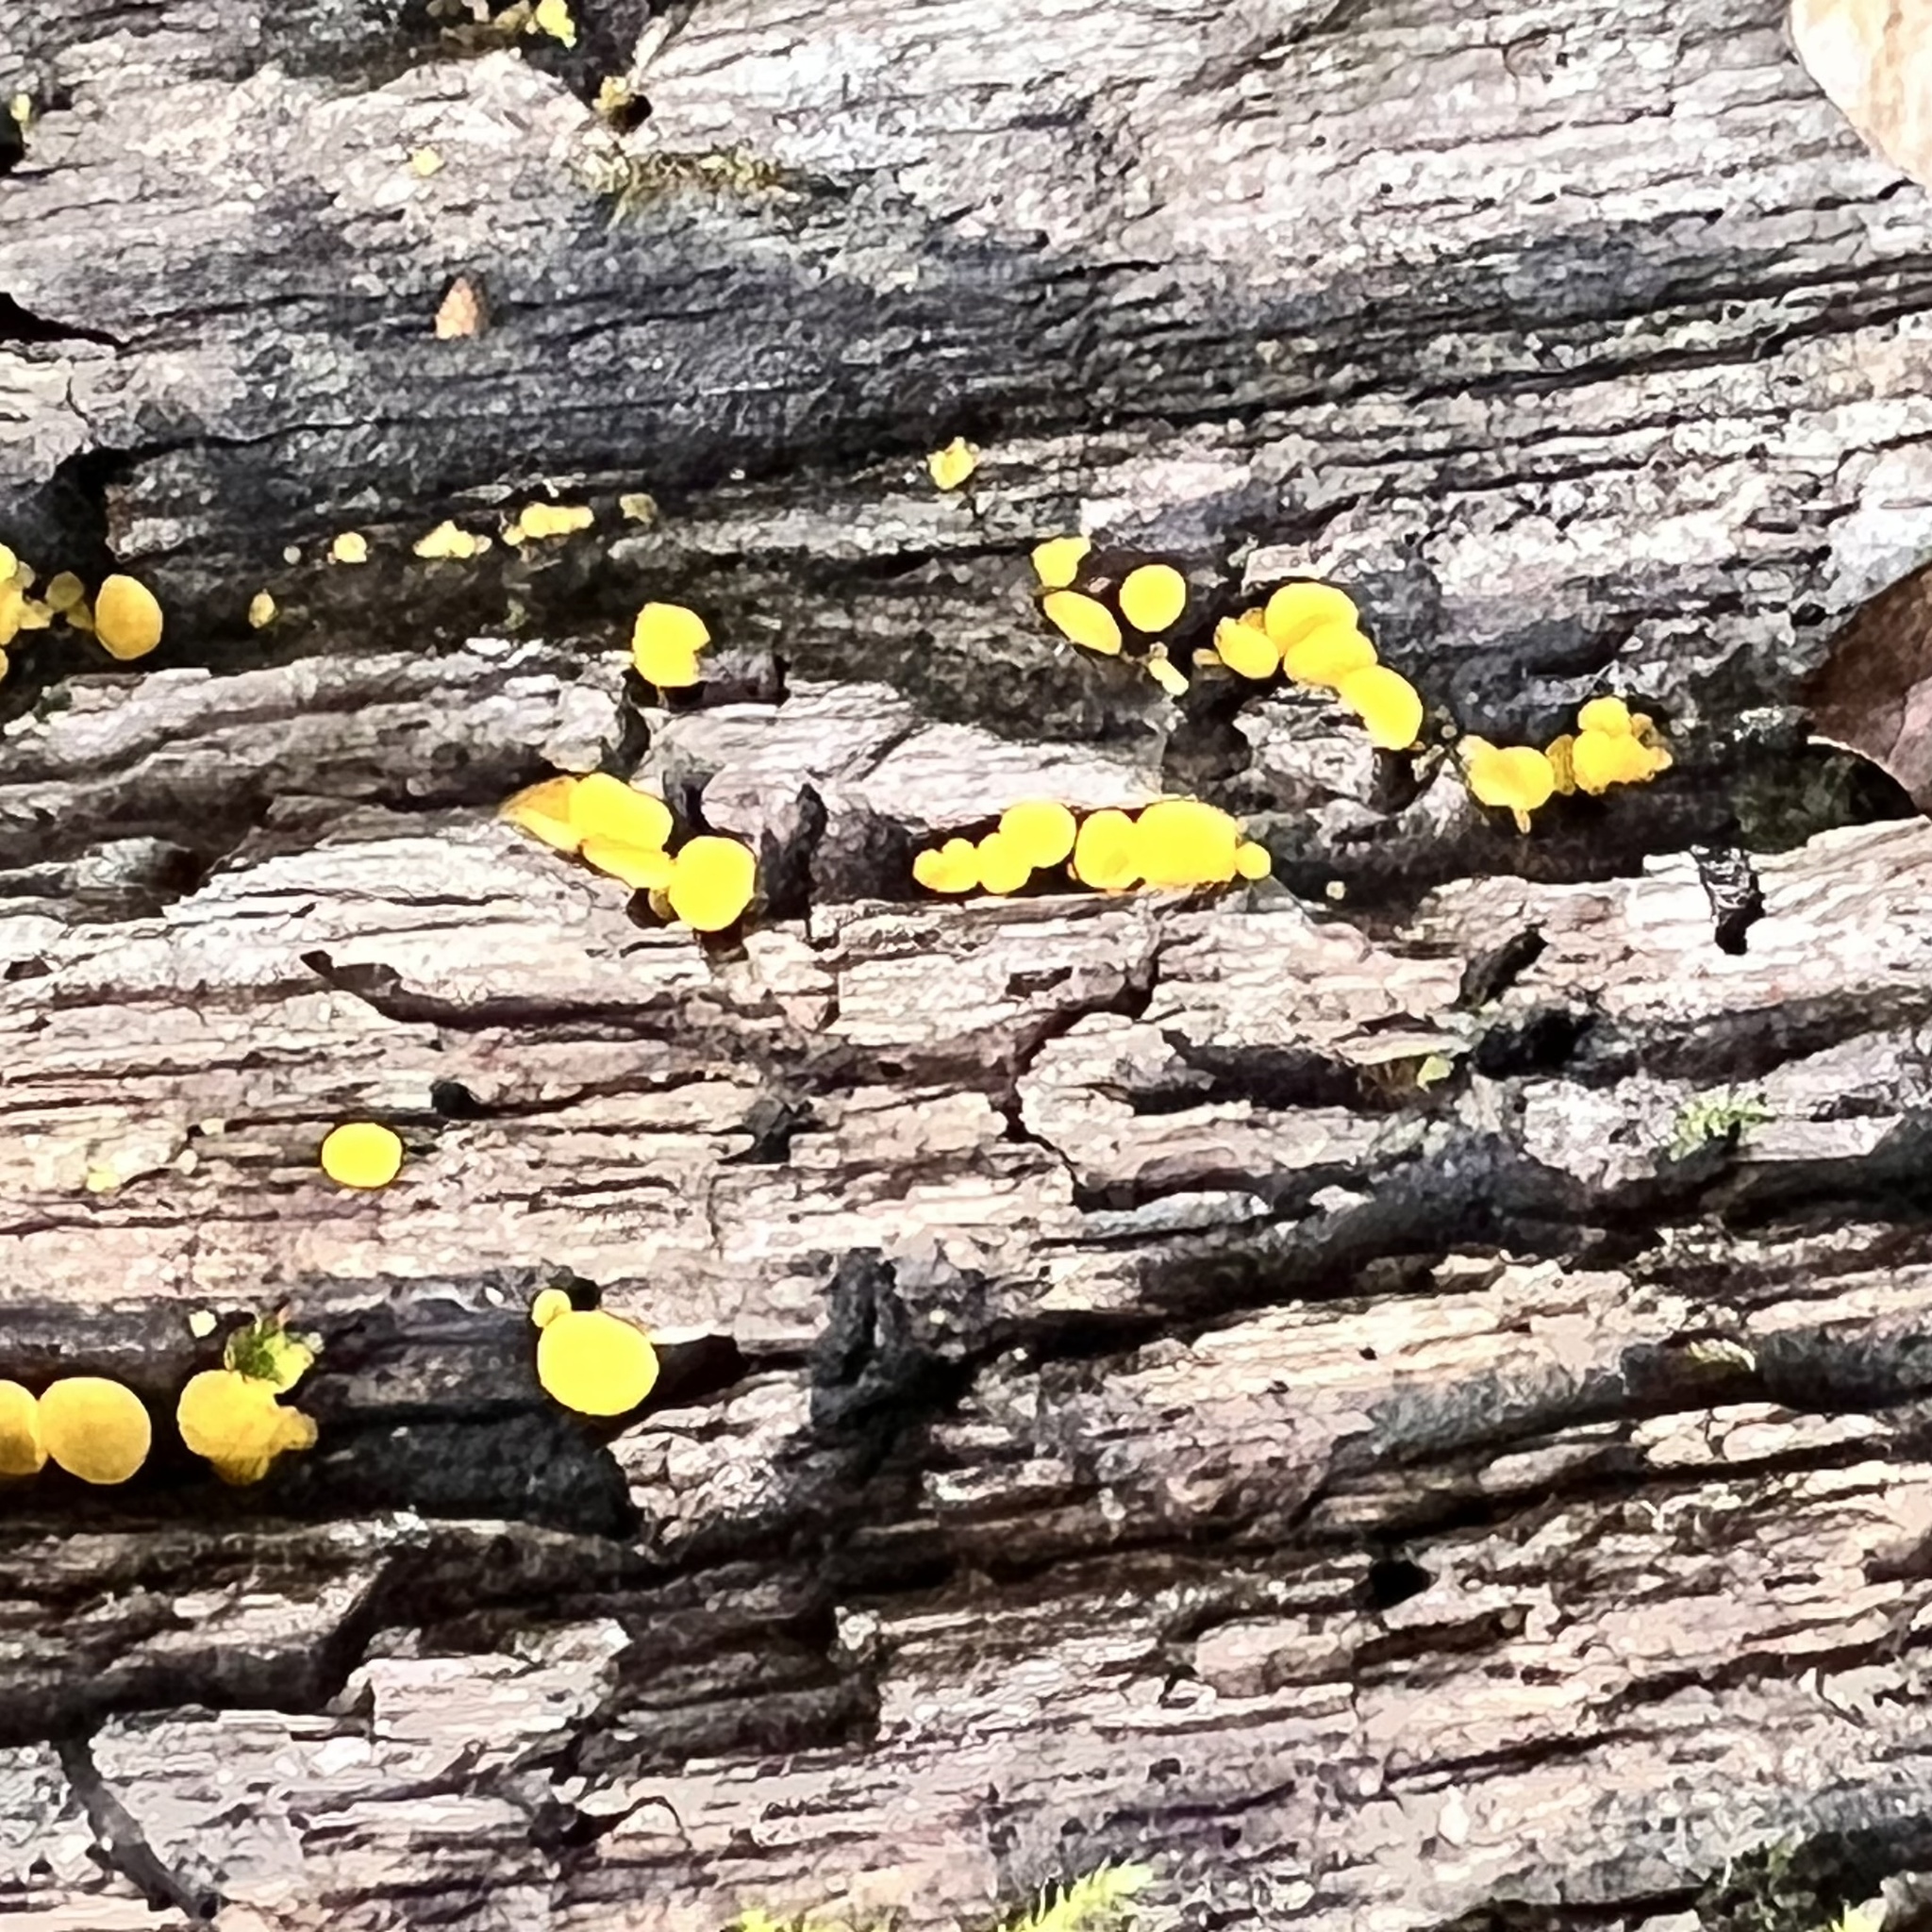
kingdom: Fungi
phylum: Ascomycota
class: Leotiomycetes
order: Helotiales
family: Pezizellaceae
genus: Calycina
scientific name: Calycina citrina
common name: Yellow fairy cups
